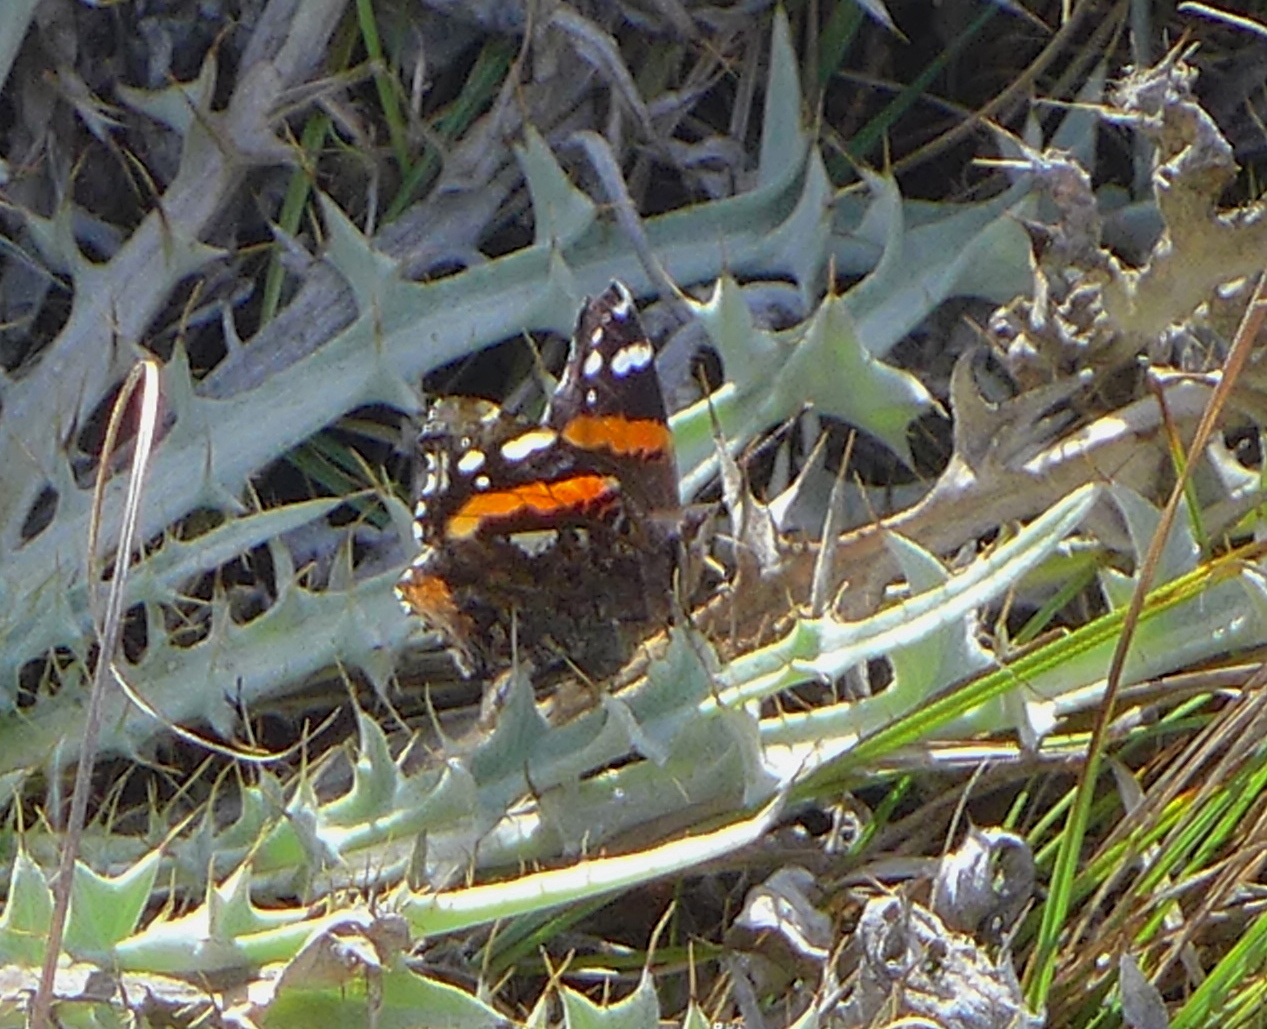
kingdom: Animalia
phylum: Arthropoda
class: Insecta
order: Lepidoptera
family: Nymphalidae
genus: Vanessa
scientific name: Vanessa atalanta
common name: Red admiral
